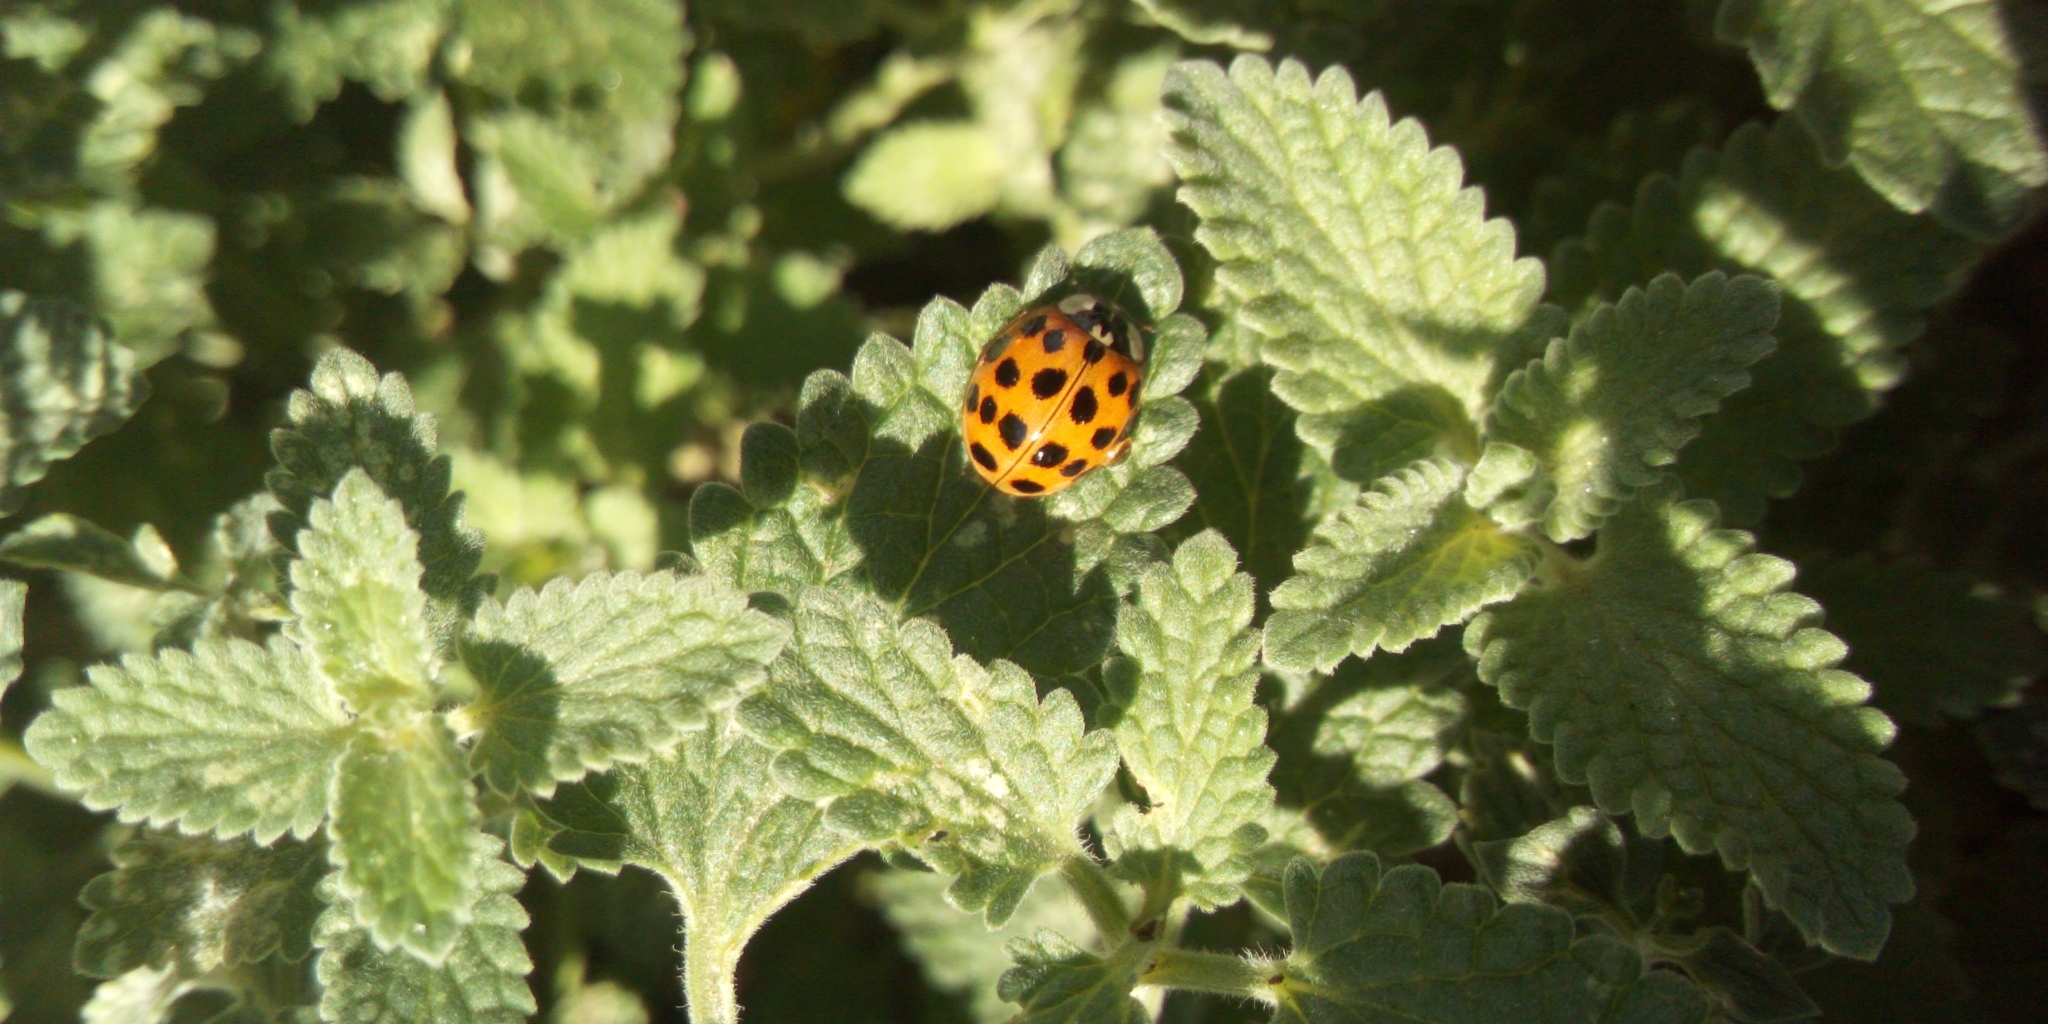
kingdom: Animalia
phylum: Arthropoda
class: Insecta
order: Coleoptera
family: Coccinellidae
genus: Harmonia
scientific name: Harmonia axyridis
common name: Harlequin ladybird
